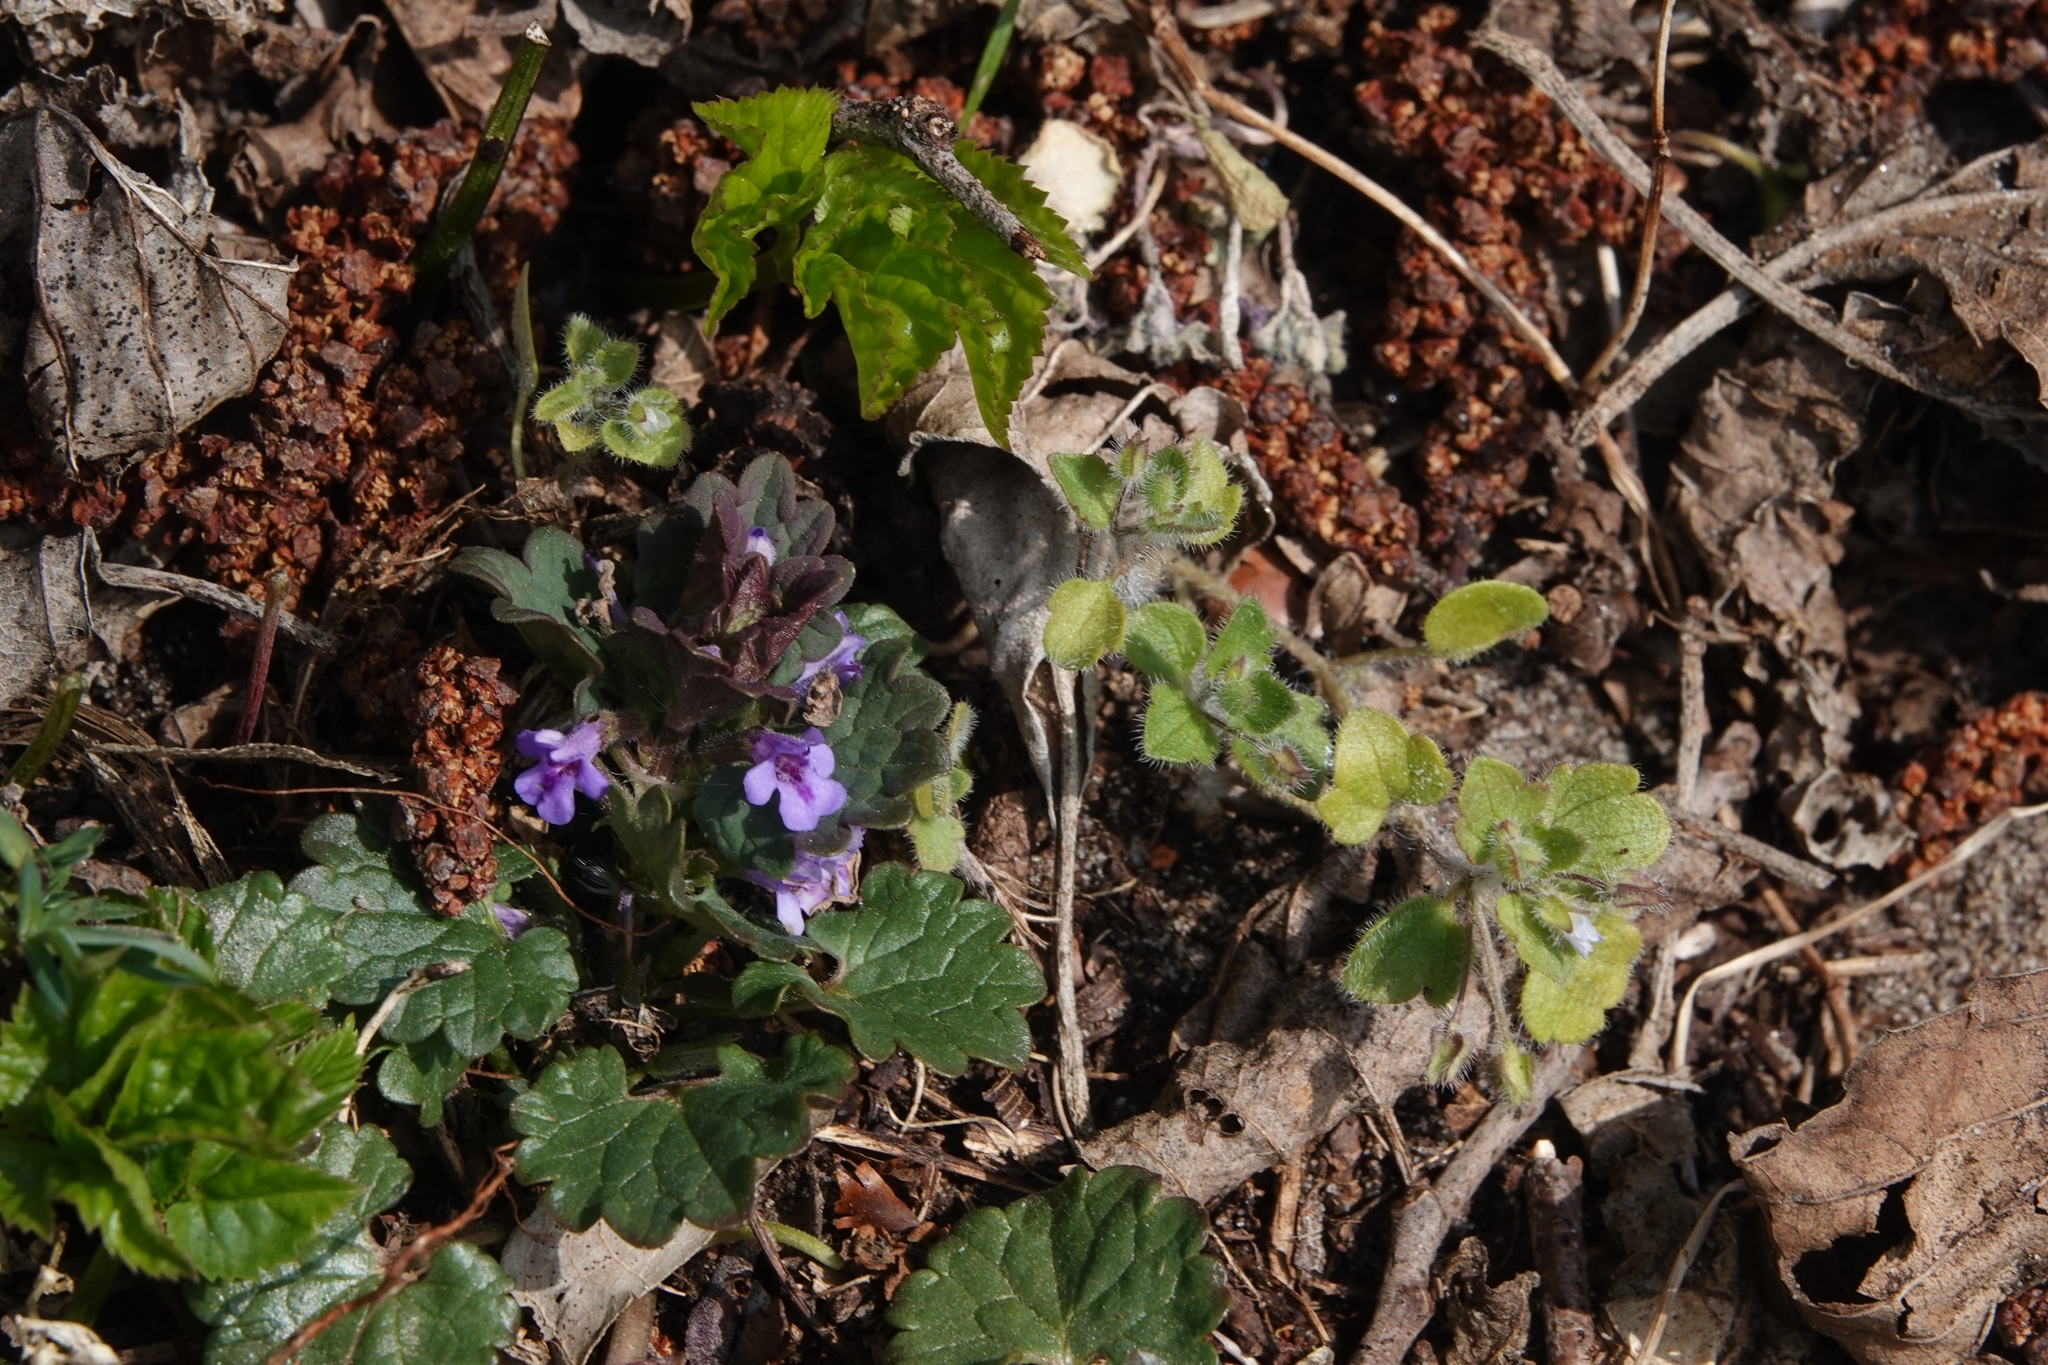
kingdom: Plantae
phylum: Tracheophyta
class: Magnoliopsida
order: Lamiales
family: Lamiaceae
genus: Glechoma
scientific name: Glechoma hederacea
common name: Ground ivy
